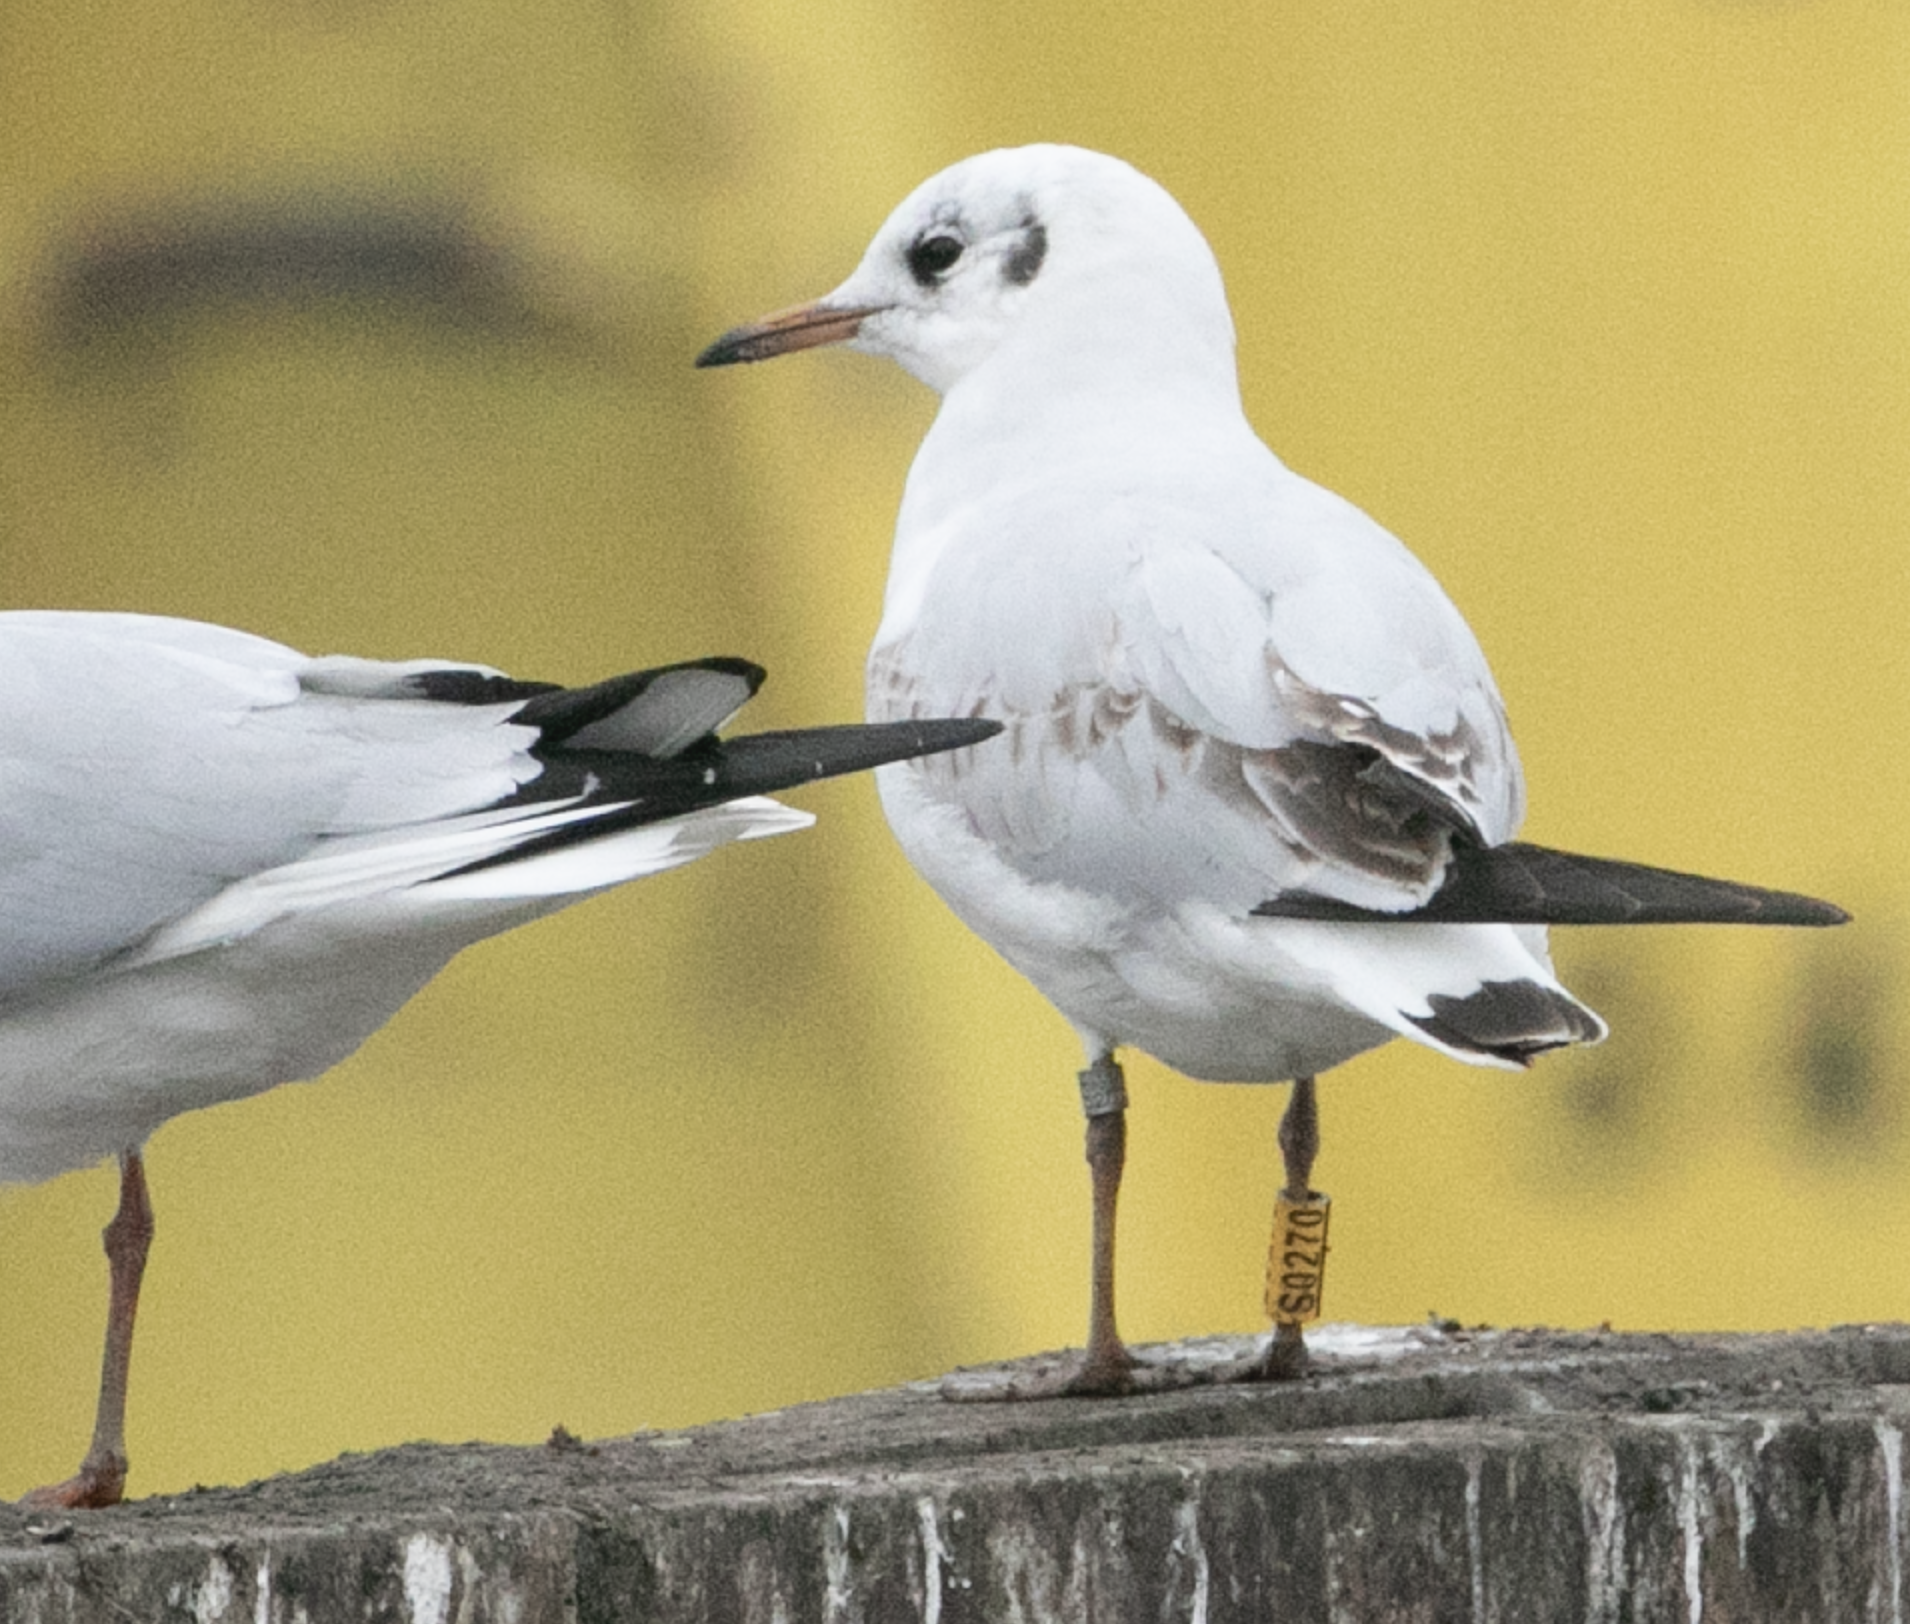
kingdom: Animalia
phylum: Chordata
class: Aves
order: Charadriiformes
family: Laridae
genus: Chroicocephalus
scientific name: Chroicocephalus ridibundus
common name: Black-headed gull
